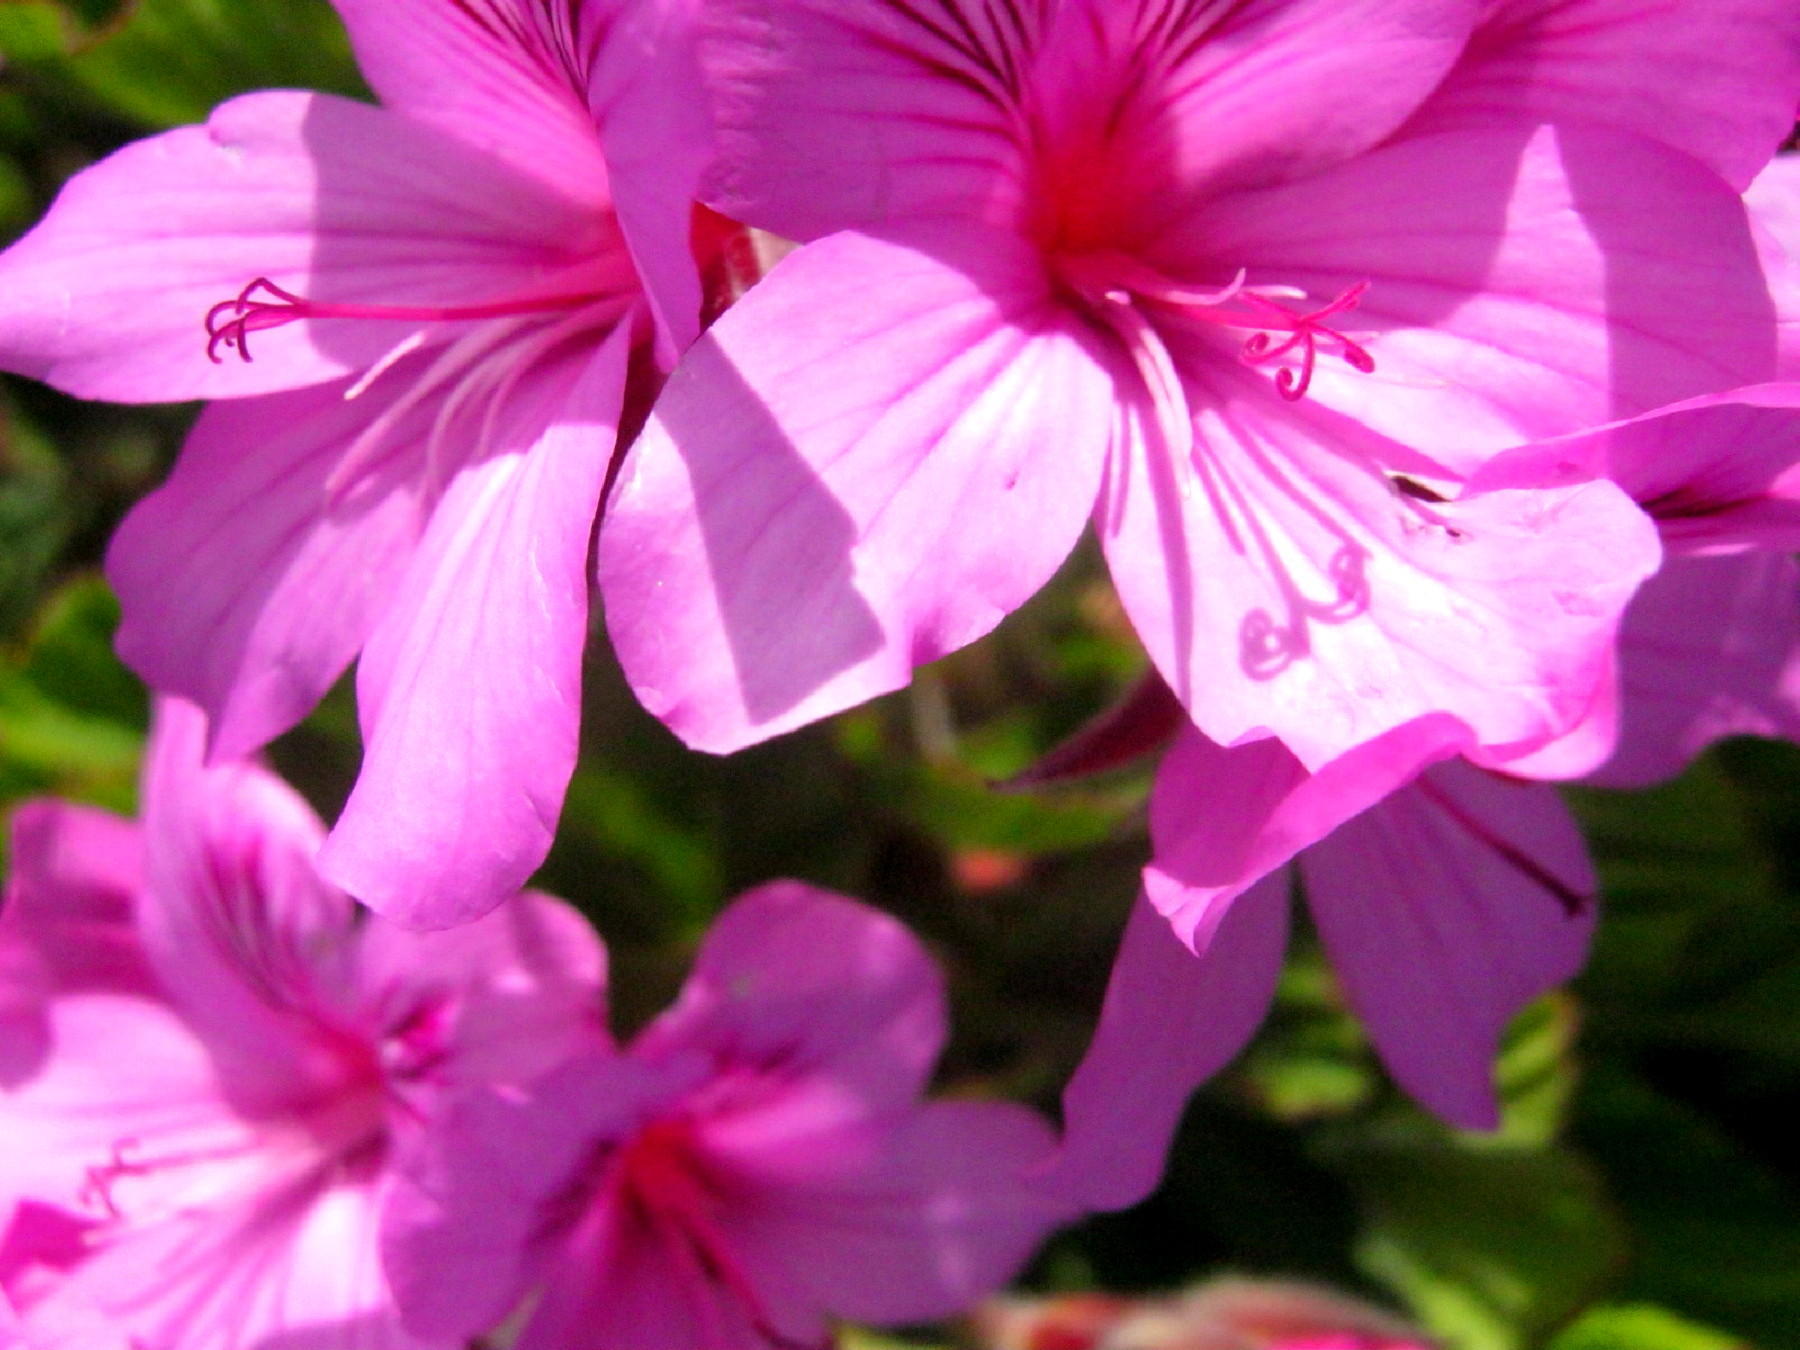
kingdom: Plantae
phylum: Tracheophyta
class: Magnoliopsida
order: Geraniales
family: Geraniaceae
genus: Pelargonium
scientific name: Pelargonium cucullatum
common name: Tree pelargonium
